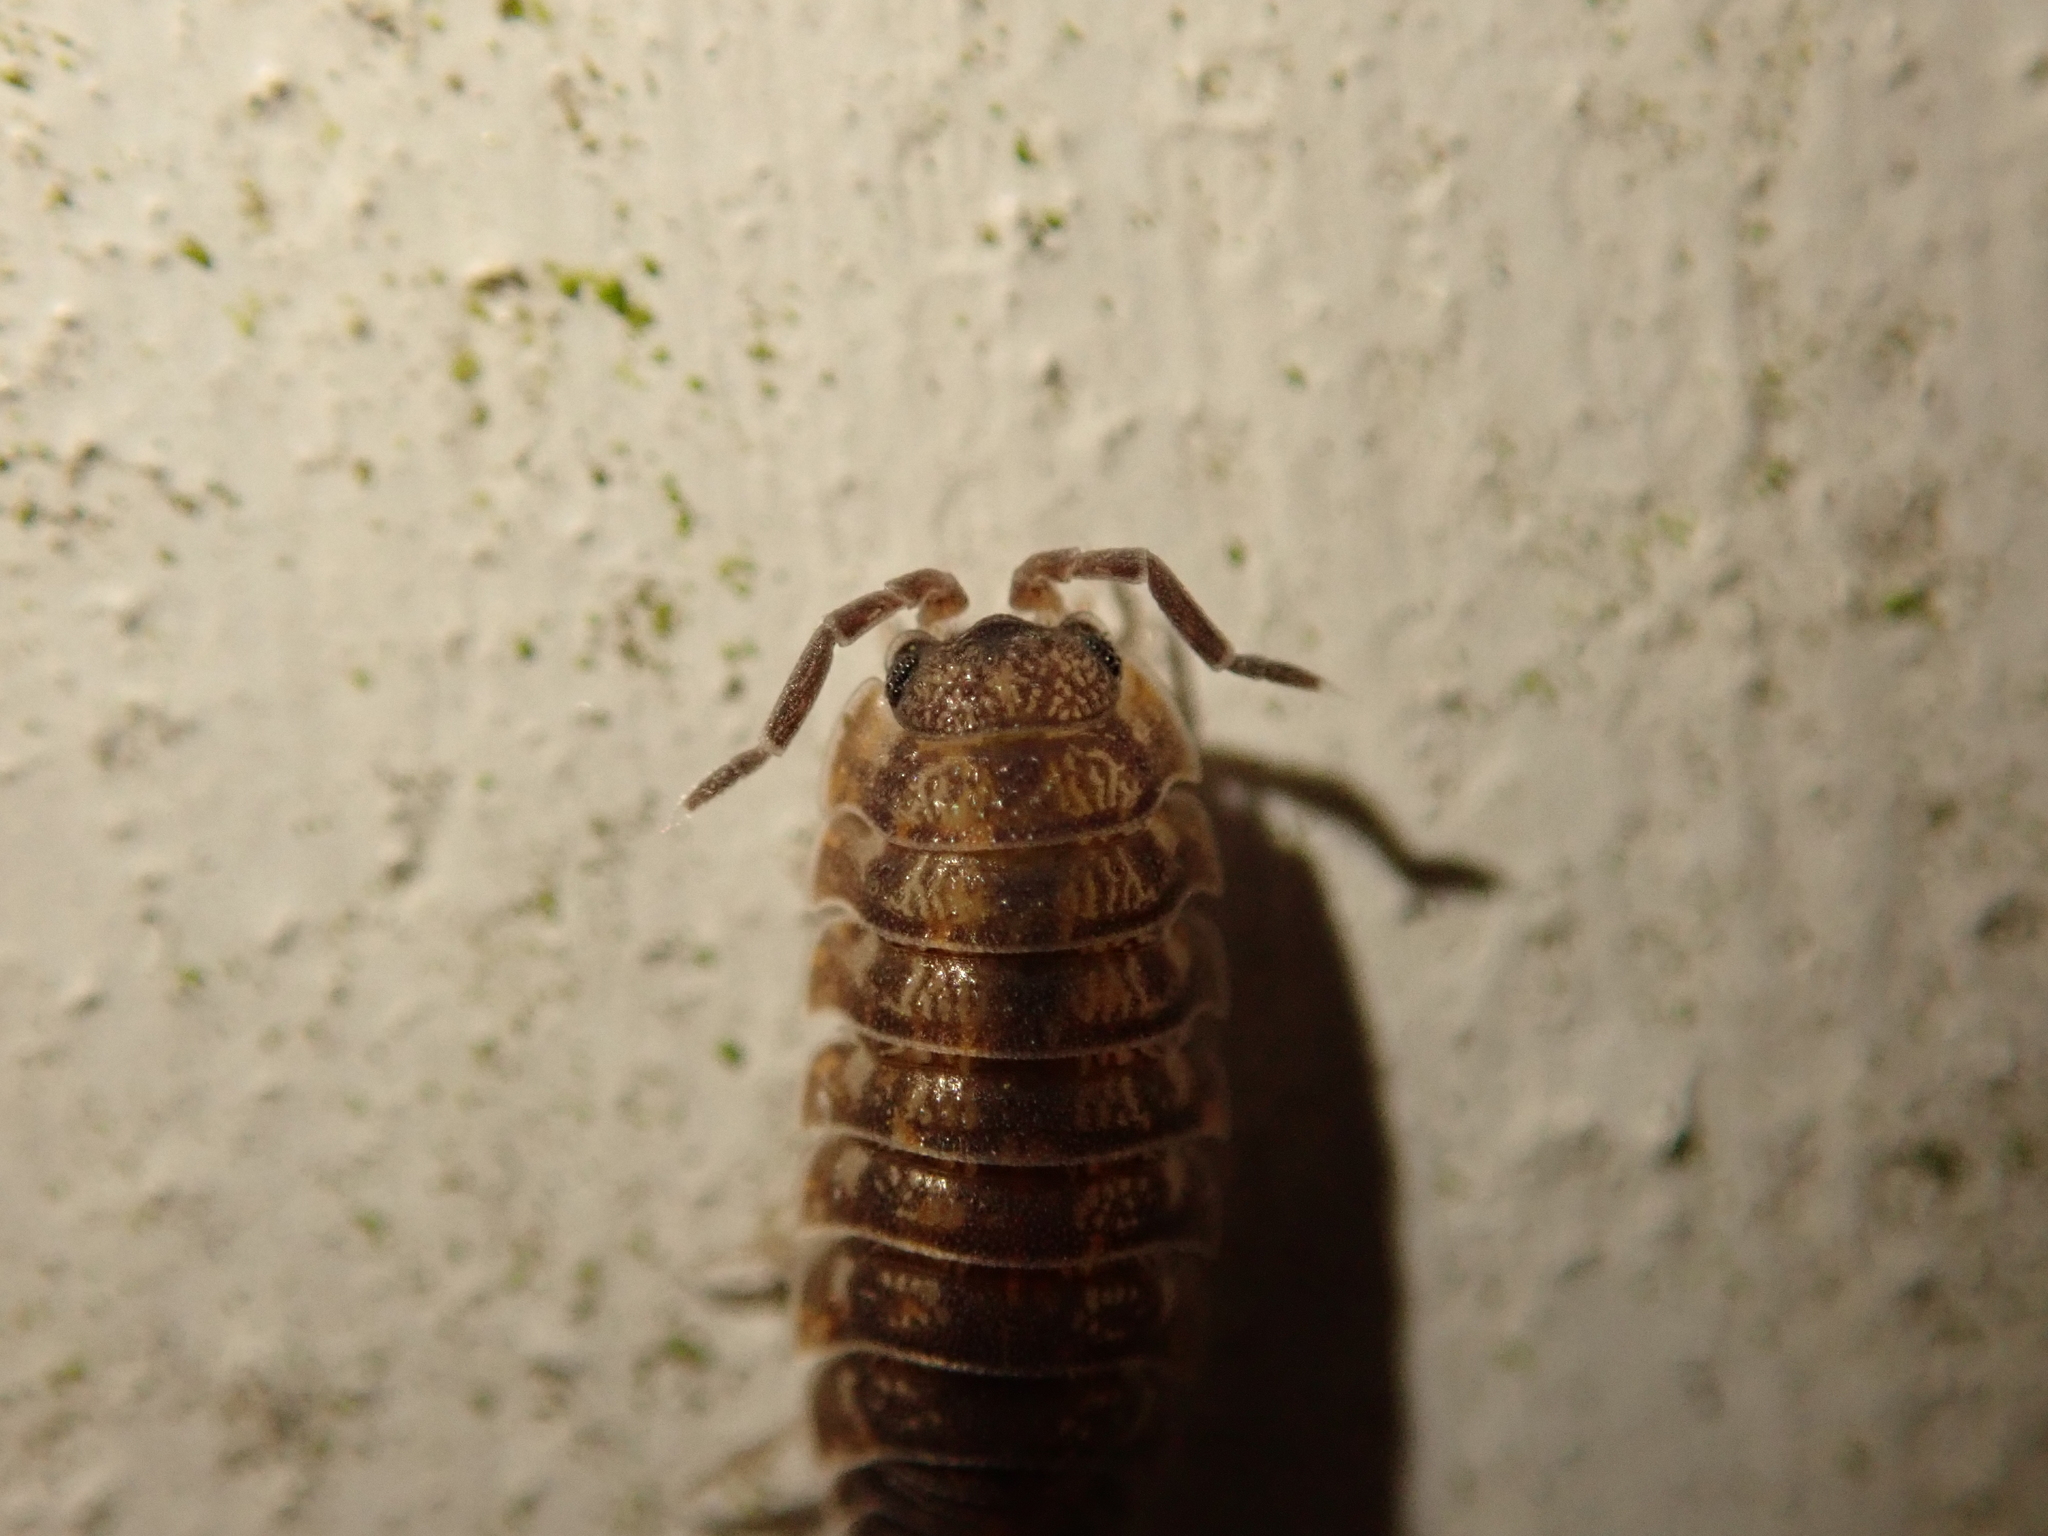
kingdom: Animalia
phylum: Arthropoda
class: Malacostraca
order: Isopoda
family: Porcellionidae
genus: Porcellio
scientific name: Porcellio scaber
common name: Common rough woodlouse
